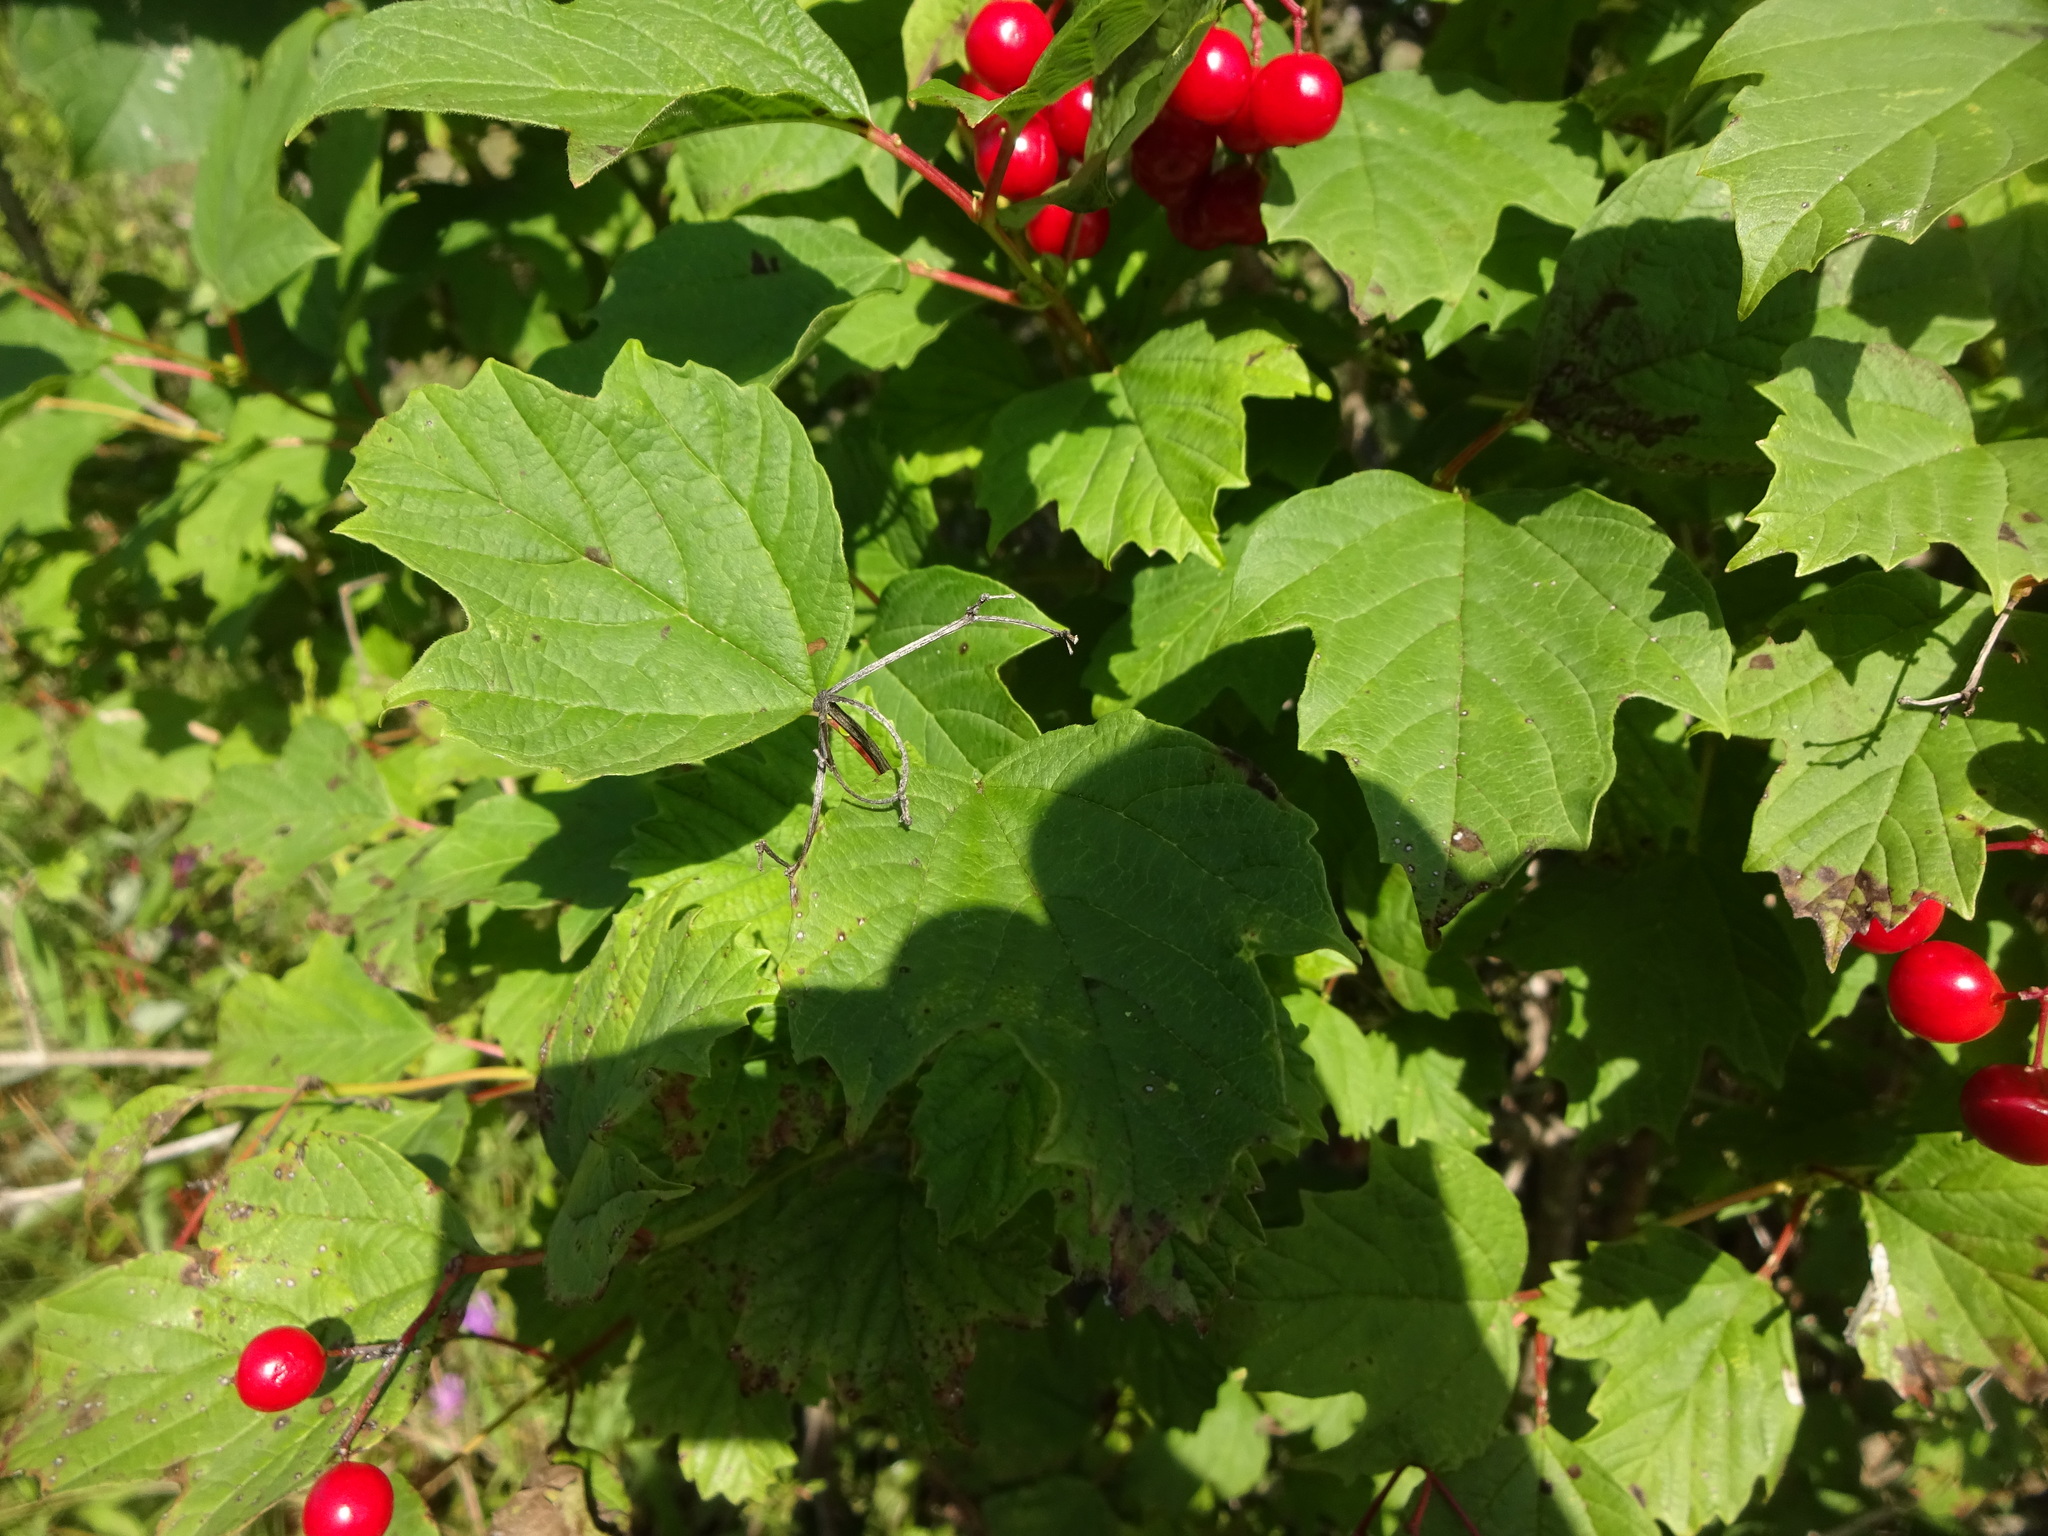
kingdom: Plantae
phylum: Tracheophyta
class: Magnoliopsida
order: Dipsacales
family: Viburnaceae
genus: Viburnum
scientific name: Viburnum opulus
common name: Guelder-rose
